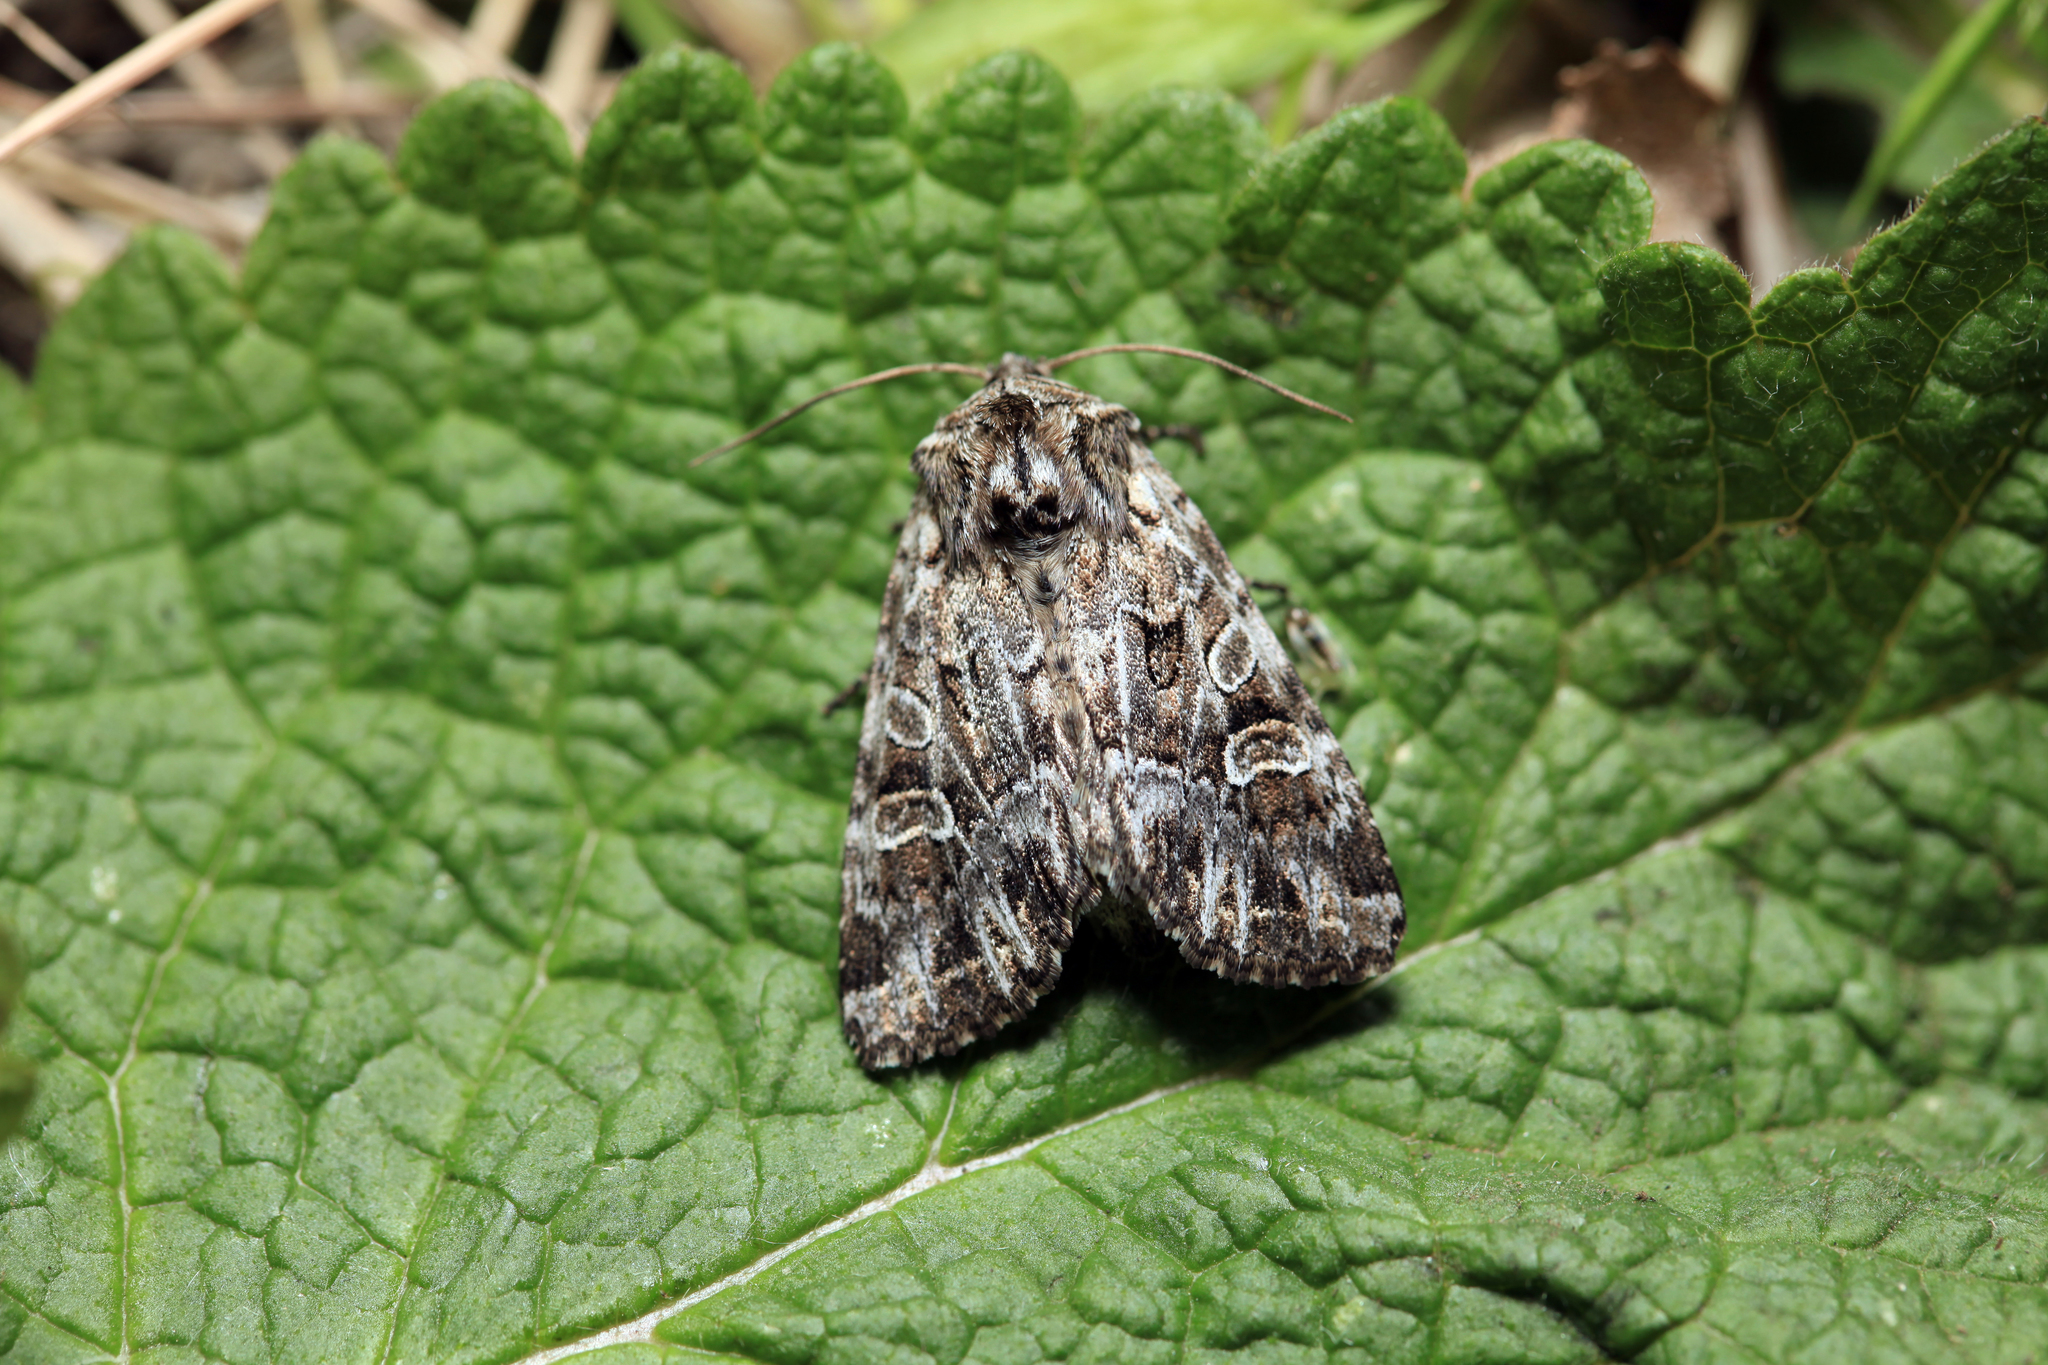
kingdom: Animalia
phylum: Arthropoda
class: Insecta
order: Lepidoptera
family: Noctuidae
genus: Pachetra
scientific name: Pachetra sagittigera
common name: Feathered ear
